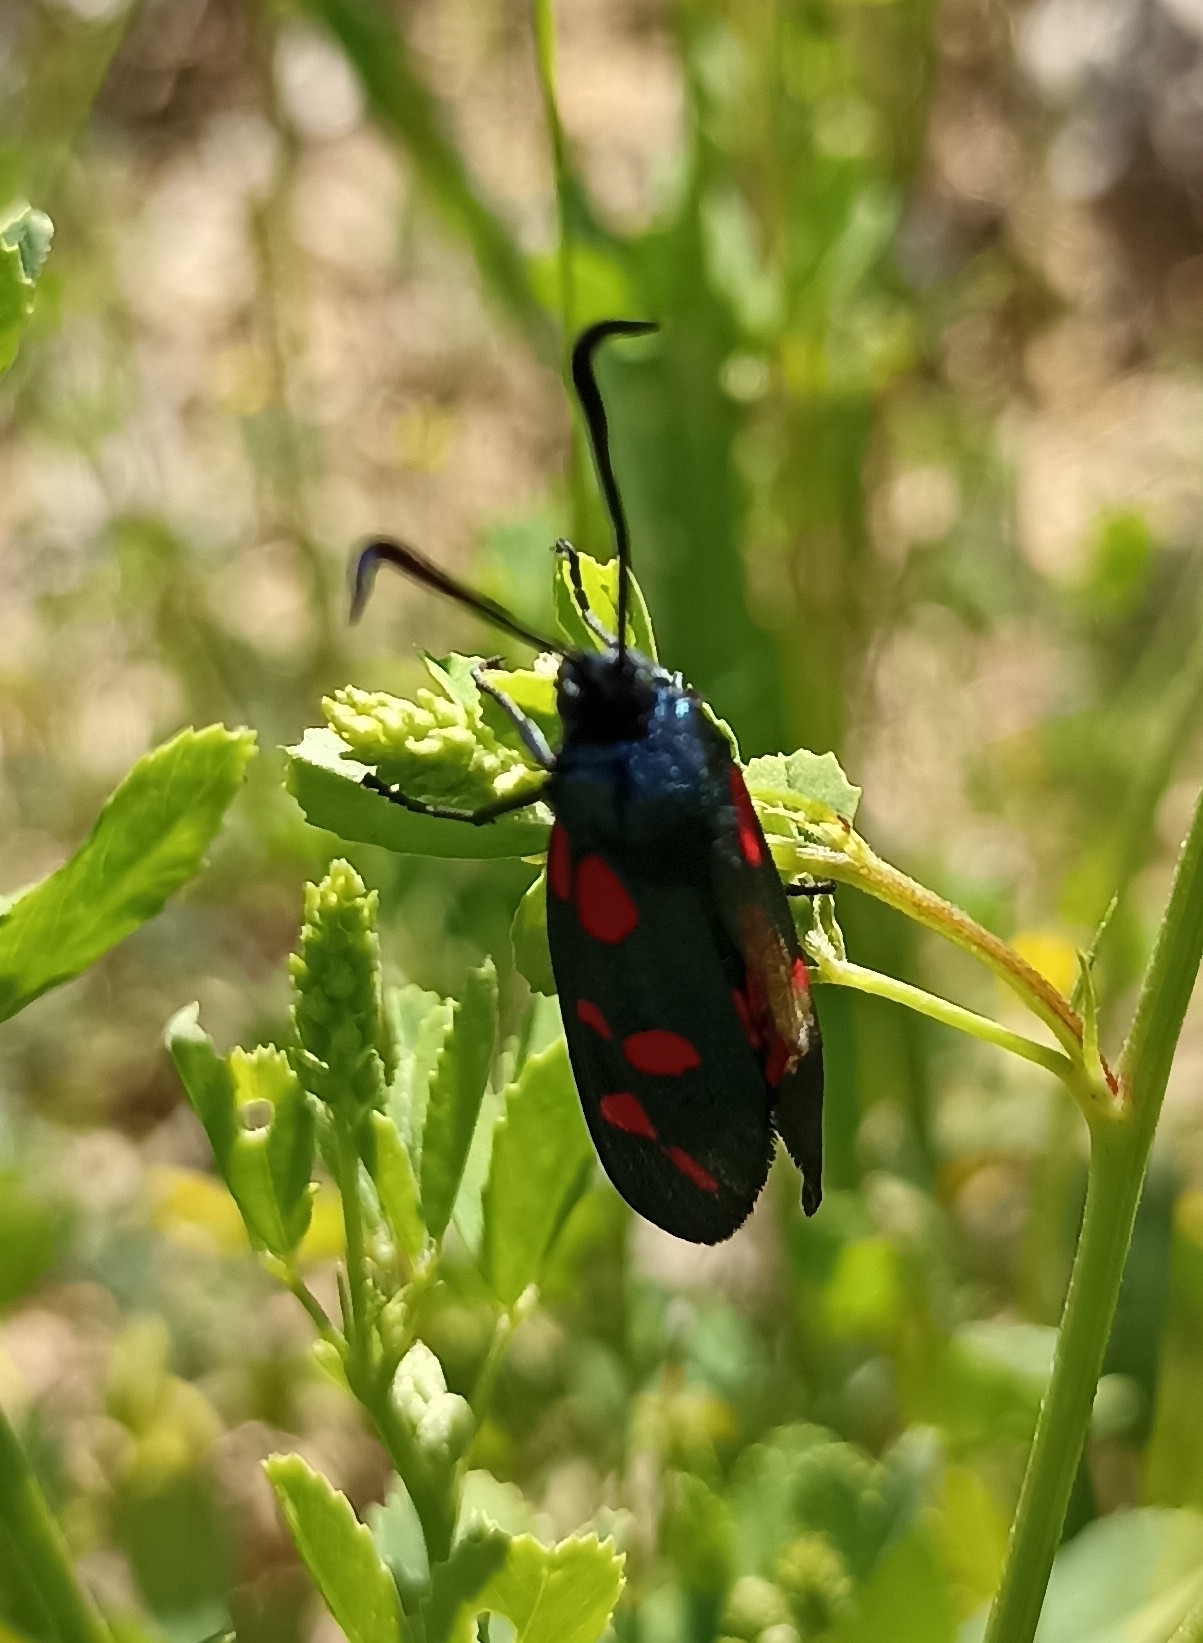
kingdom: Animalia
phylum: Arthropoda
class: Insecta
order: Lepidoptera
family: Zygaenidae
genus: Zygaena
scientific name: Zygaena filipendulae
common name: Six-spot burnet
